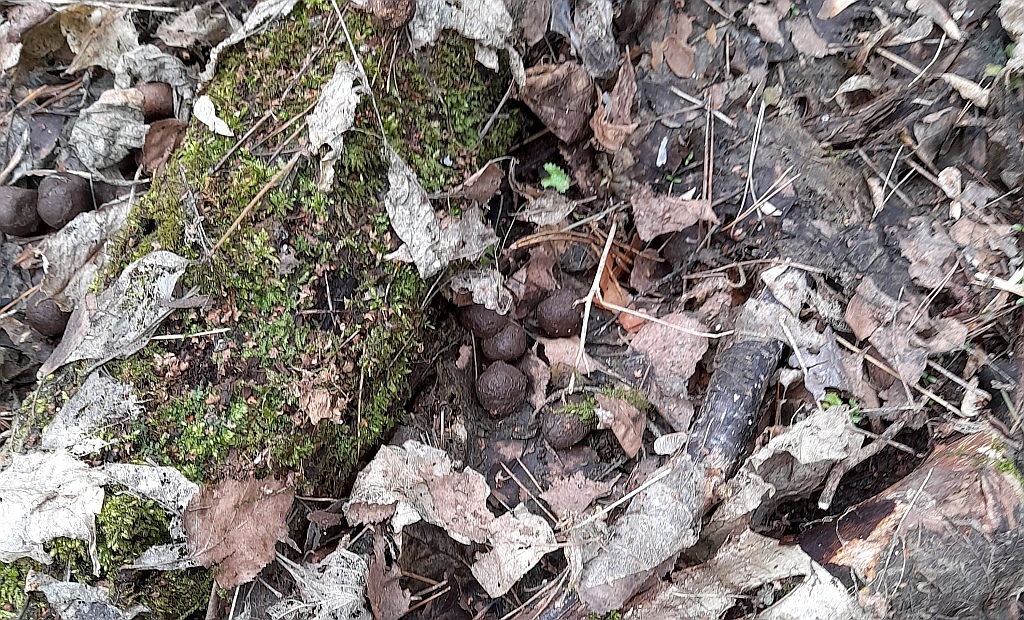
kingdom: Animalia
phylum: Chordata
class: Mammalia
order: Artiodactyla
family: Cervidae
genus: Alces
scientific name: Alces alces
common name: Moose
